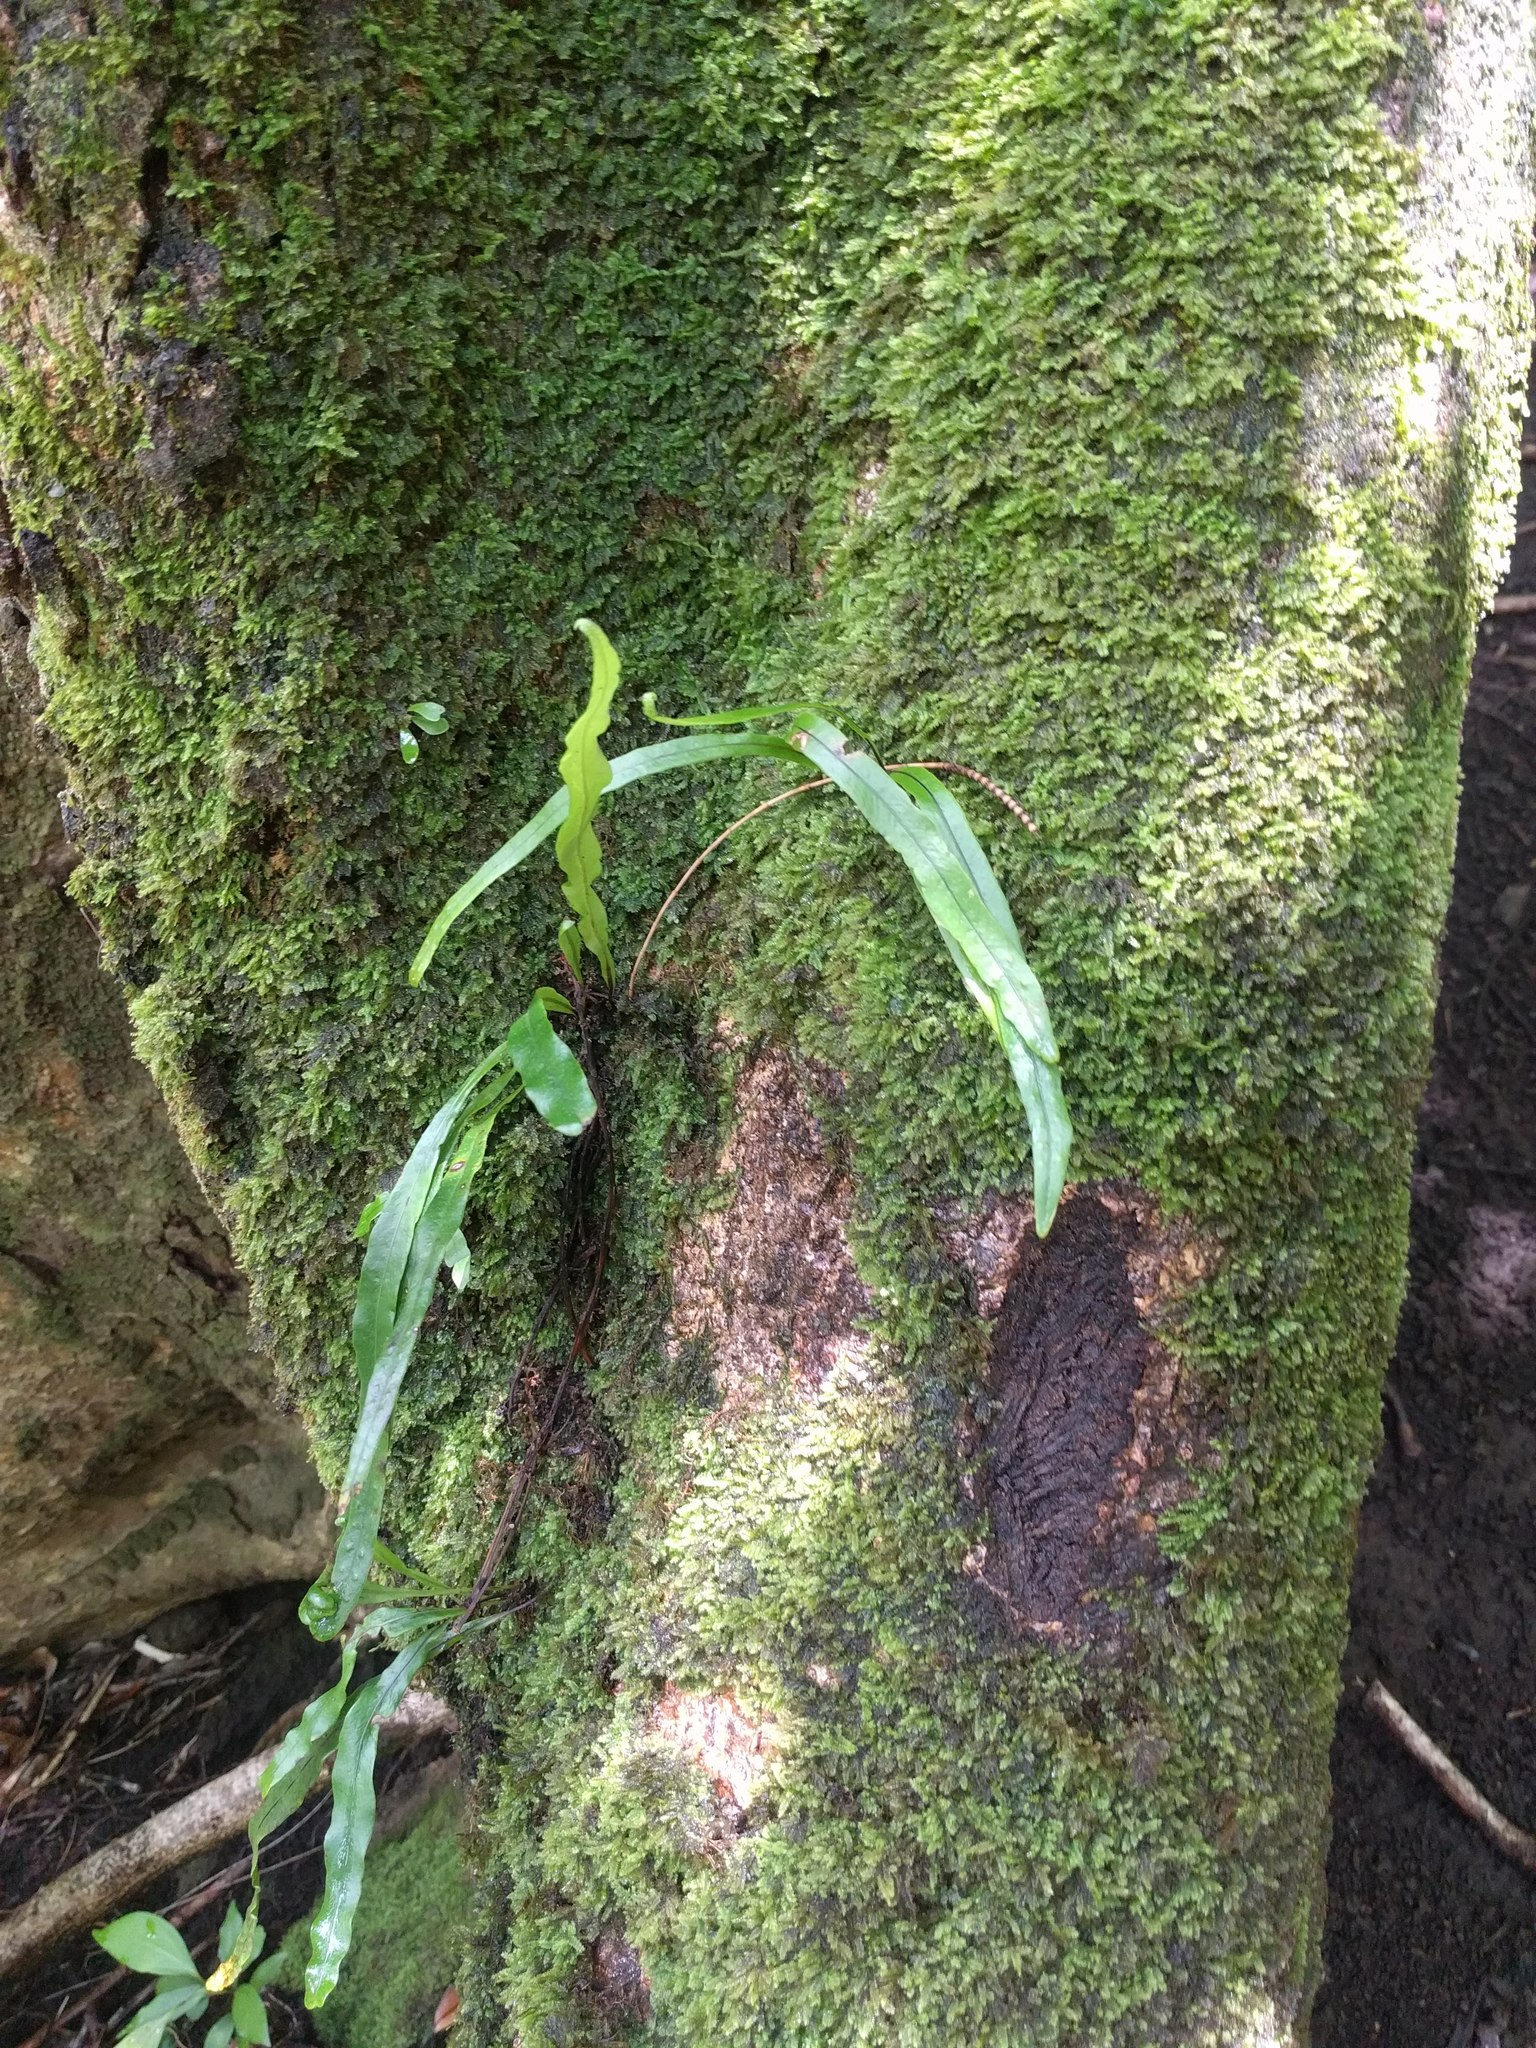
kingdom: Plantae
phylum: Tracheophyta
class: Polypodiopsida
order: Polypodiales
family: Polypodiaceae
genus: Lepisorus
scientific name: Lepisorus thunbergianus
